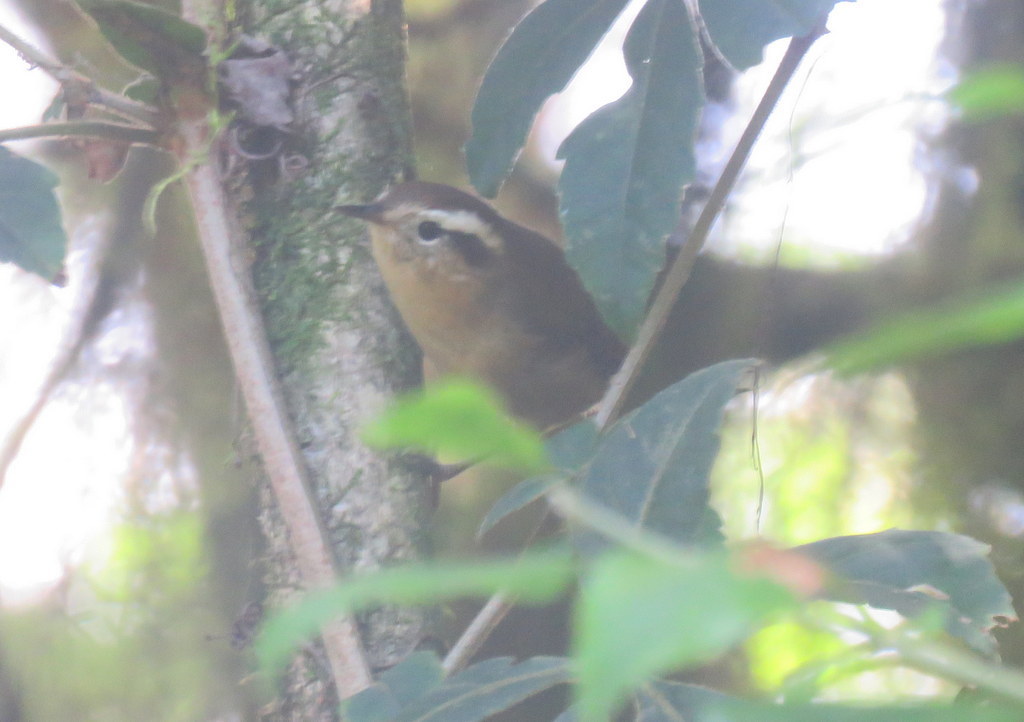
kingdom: Animalia
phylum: Chordata
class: Aves
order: Passeriformes
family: Troglodytidae
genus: Troglodytes
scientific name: Troglodytes solstitialis
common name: Mountain wren
